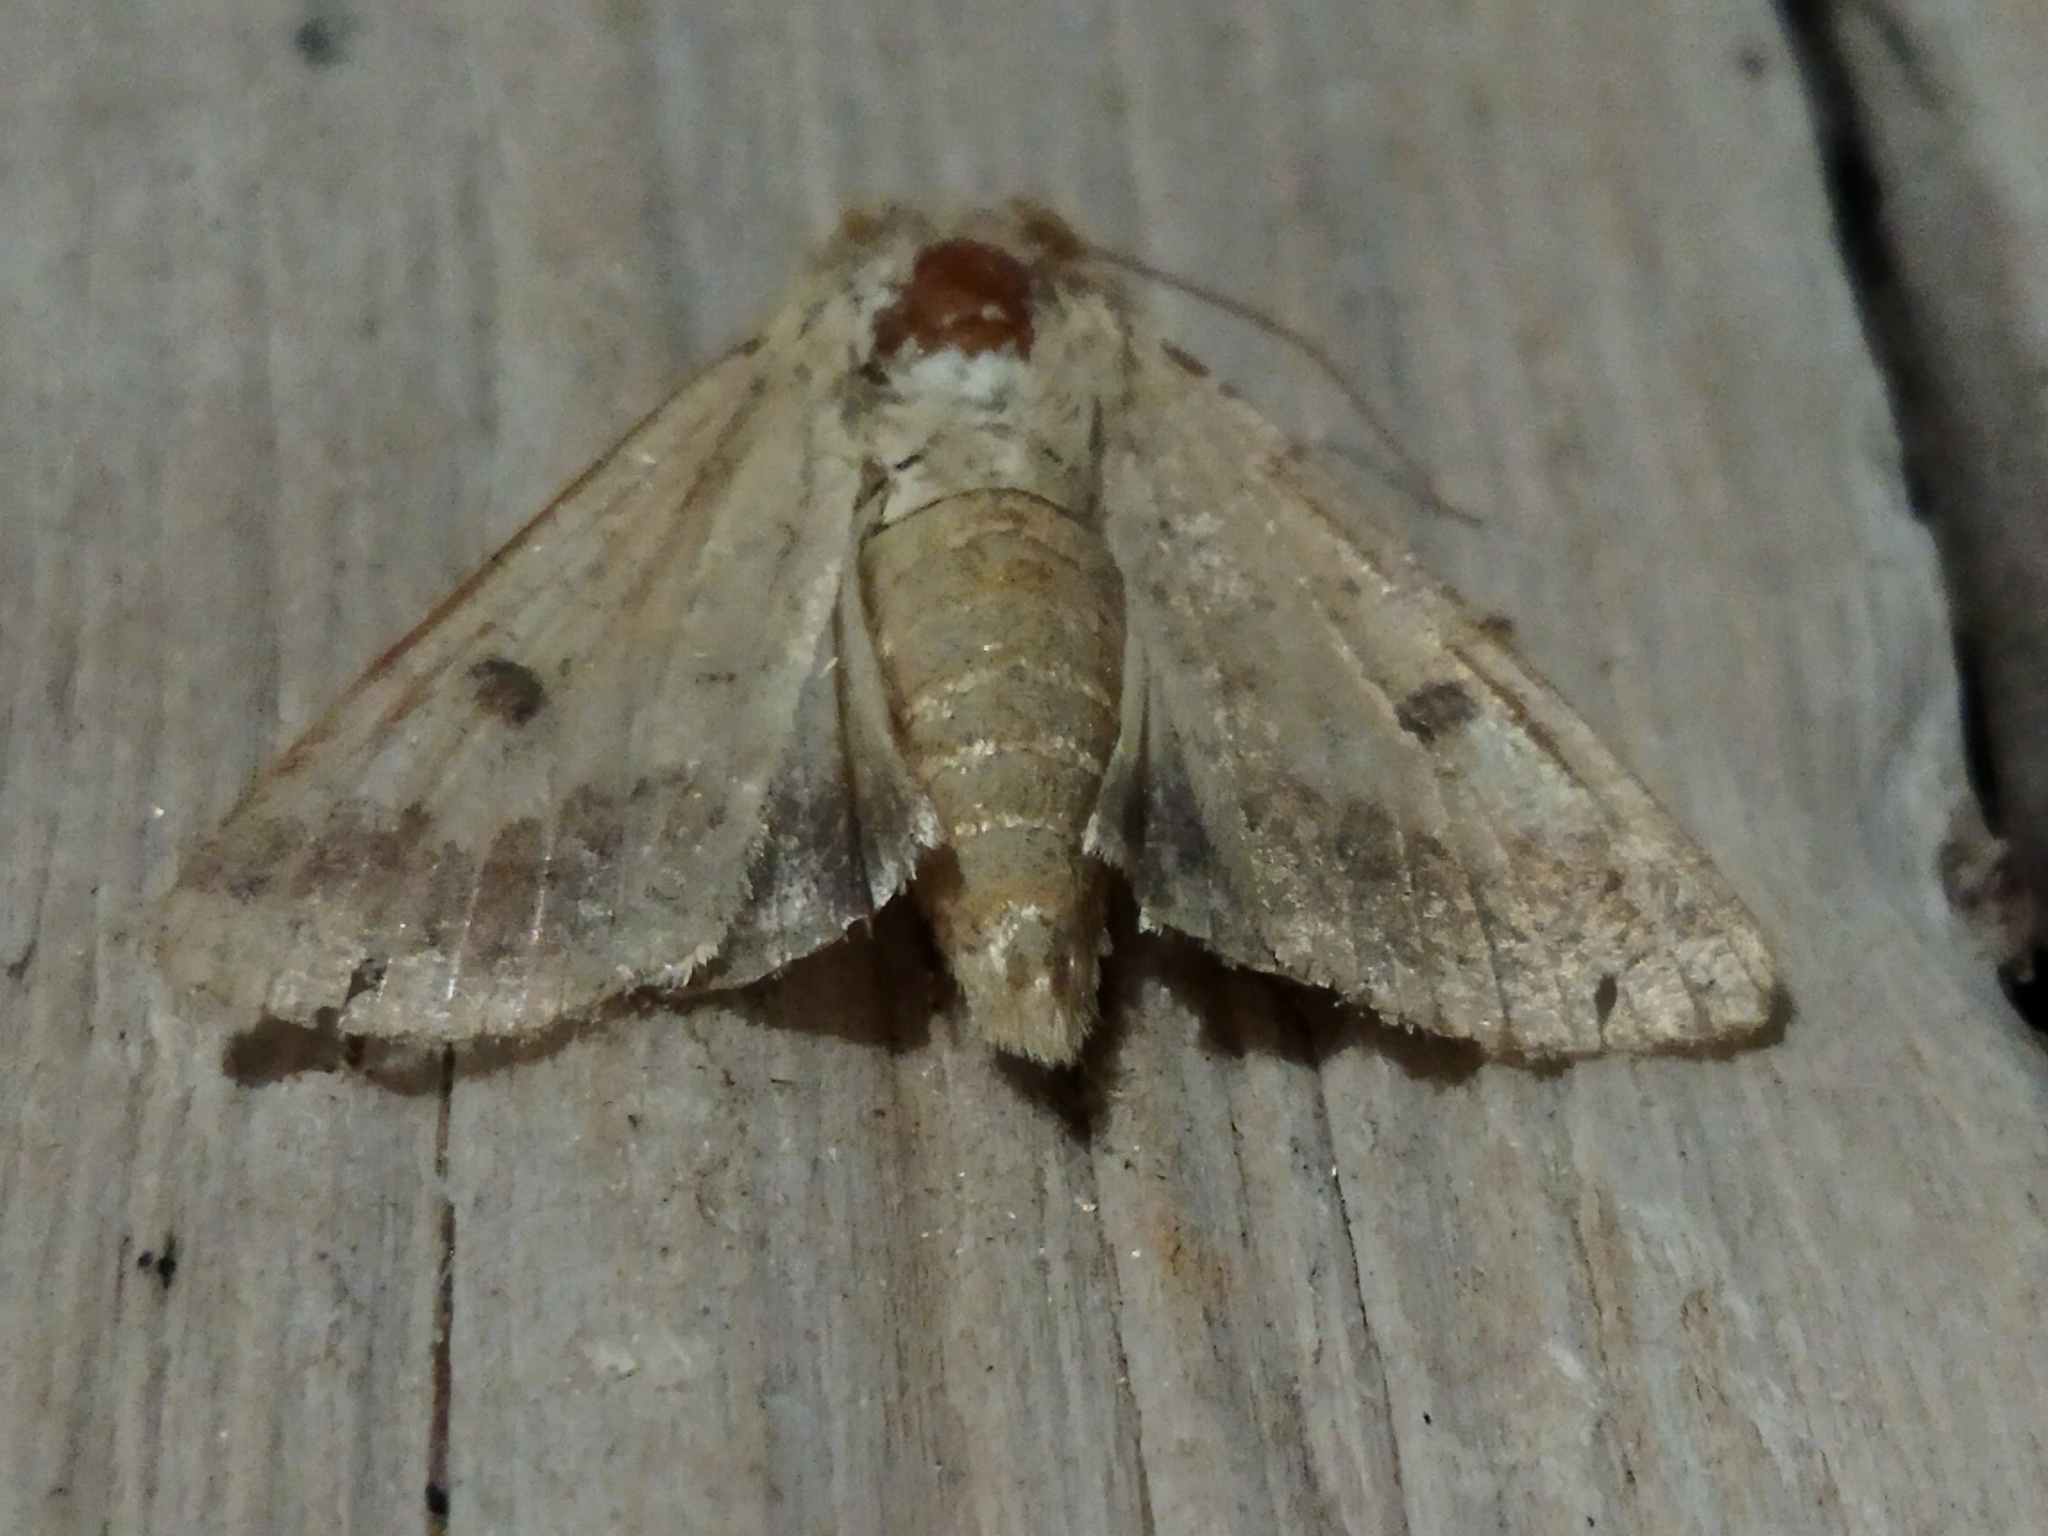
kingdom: Animalia
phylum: Arthropoda
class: Insecta
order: Lepidoptera
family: Noctuidae
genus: Helicoverpa
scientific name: Helicoverpa armigera
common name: Cotton bollworm
